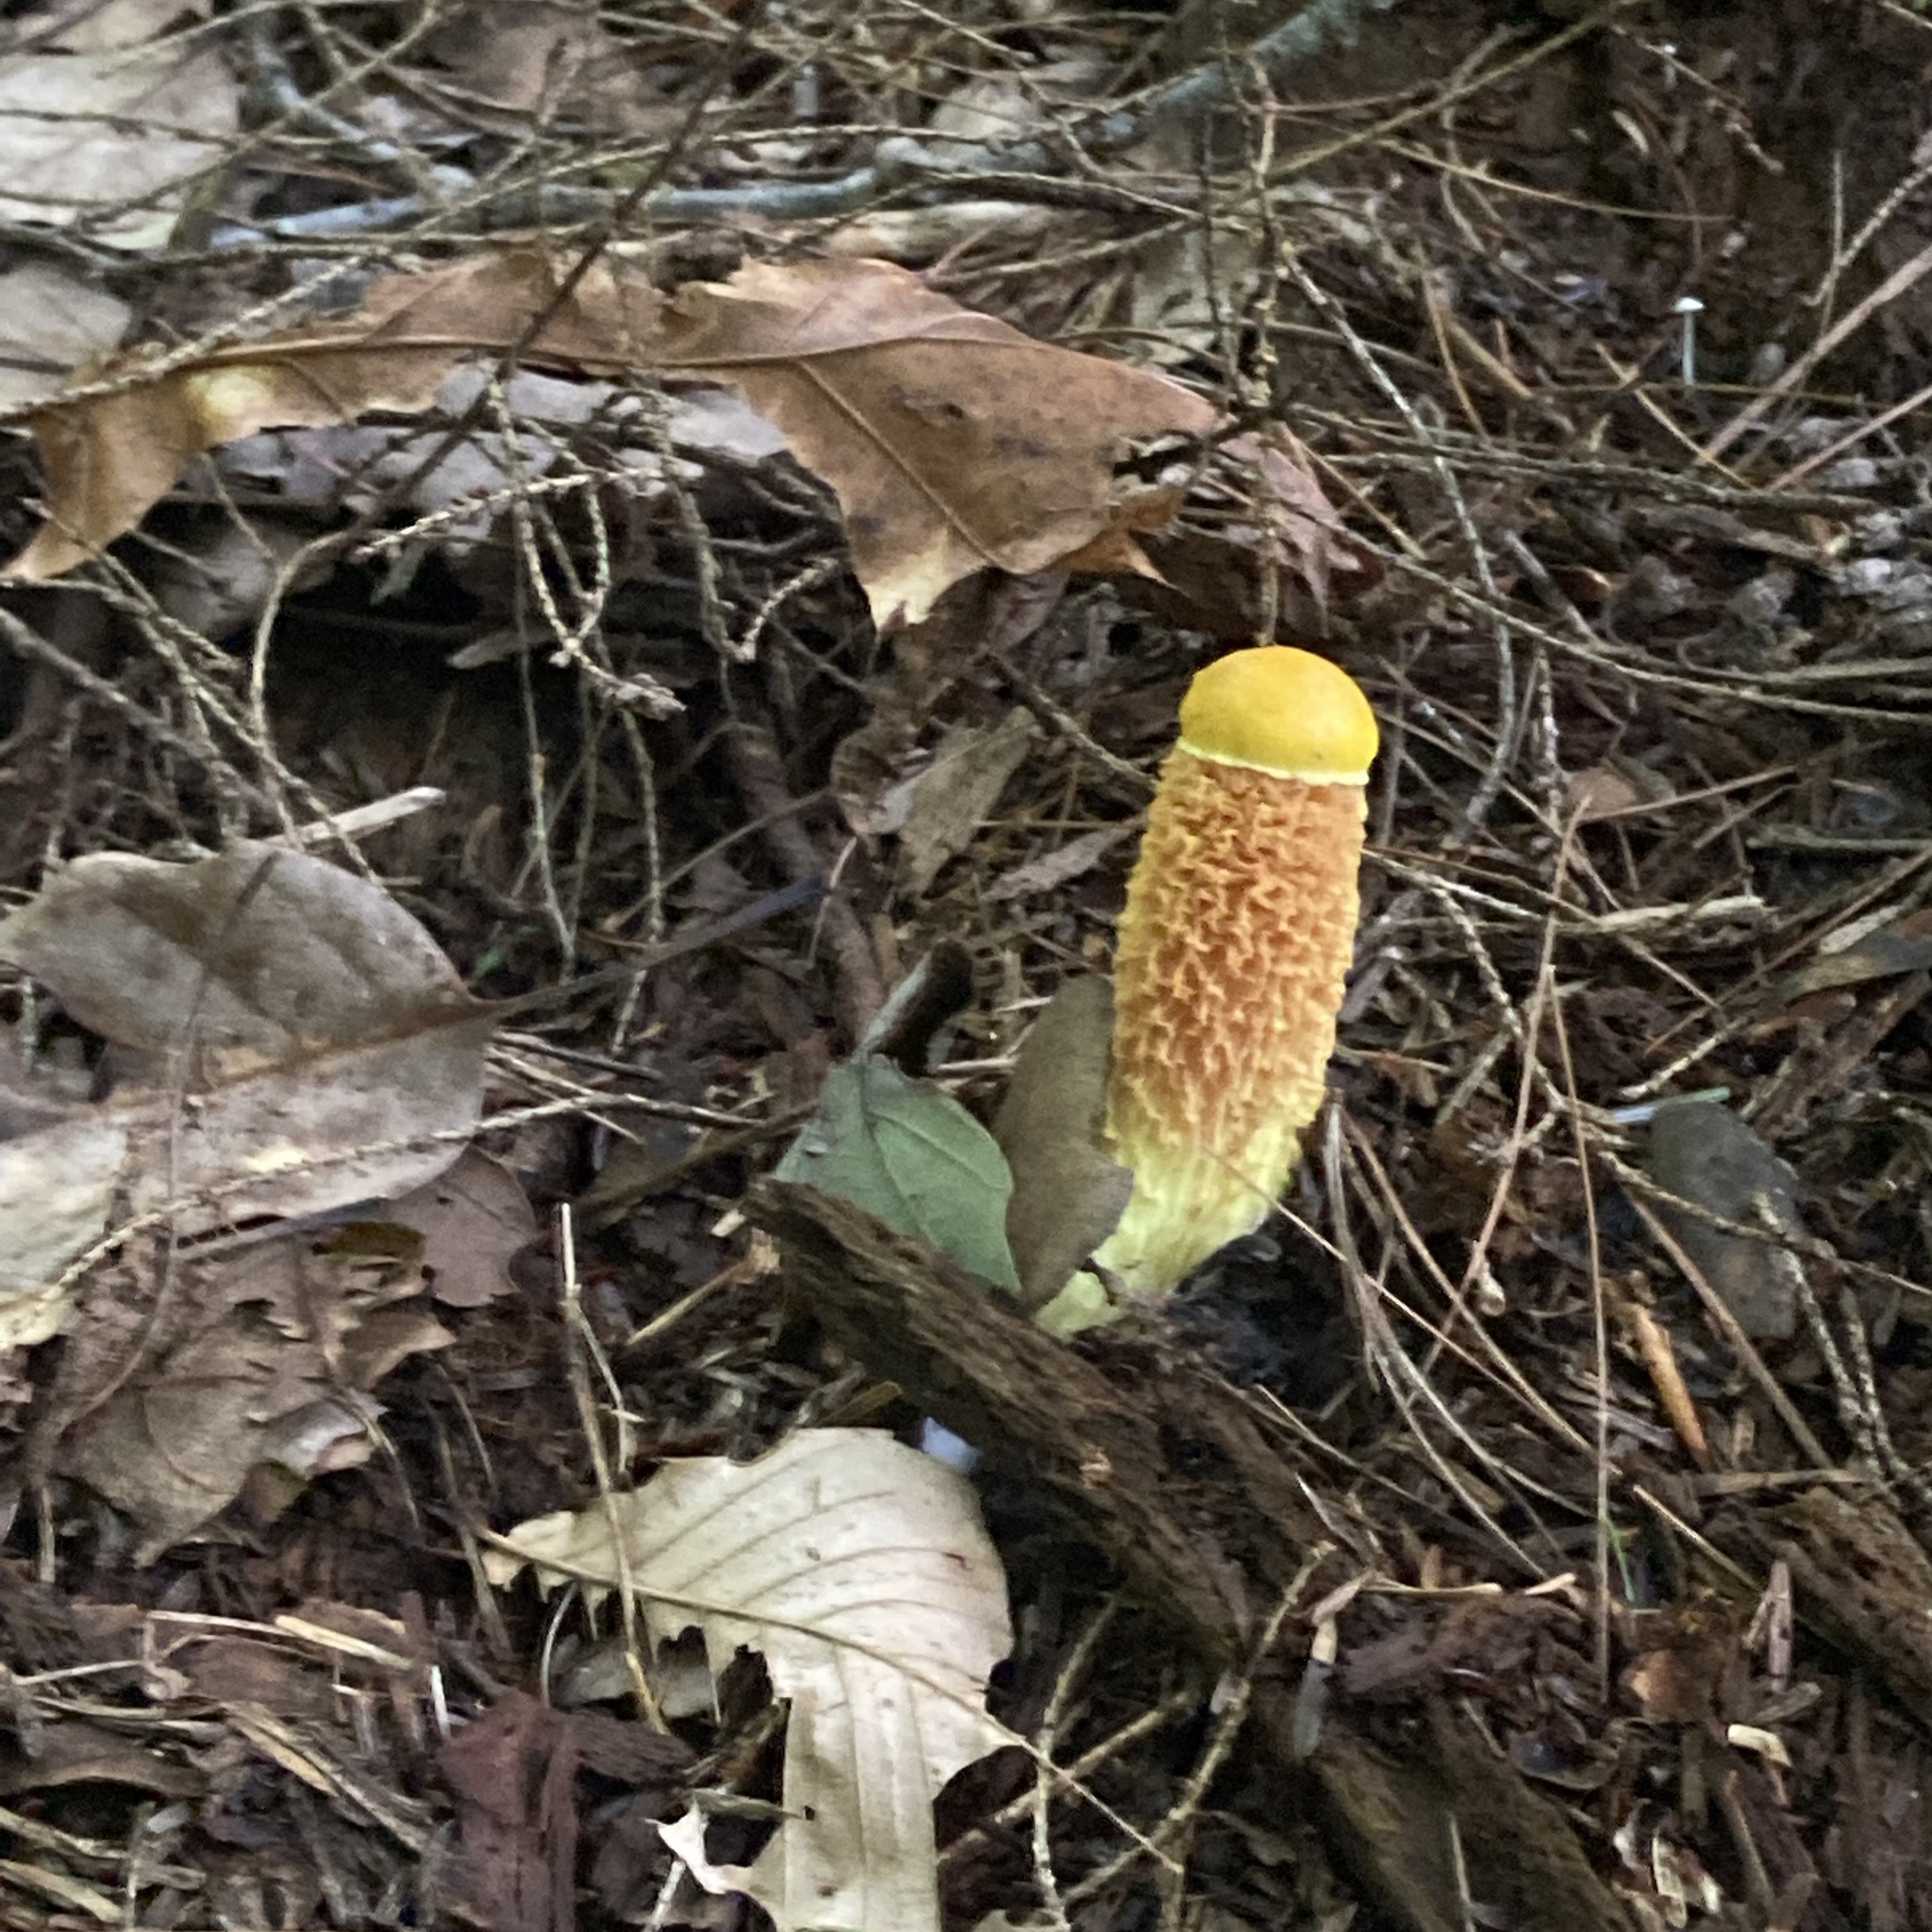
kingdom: Fungi
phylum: Basidiomycota
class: Agaricomycetes
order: Boletales
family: Boletaceae
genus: Aureoboletus
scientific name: Aureoboletus betula
